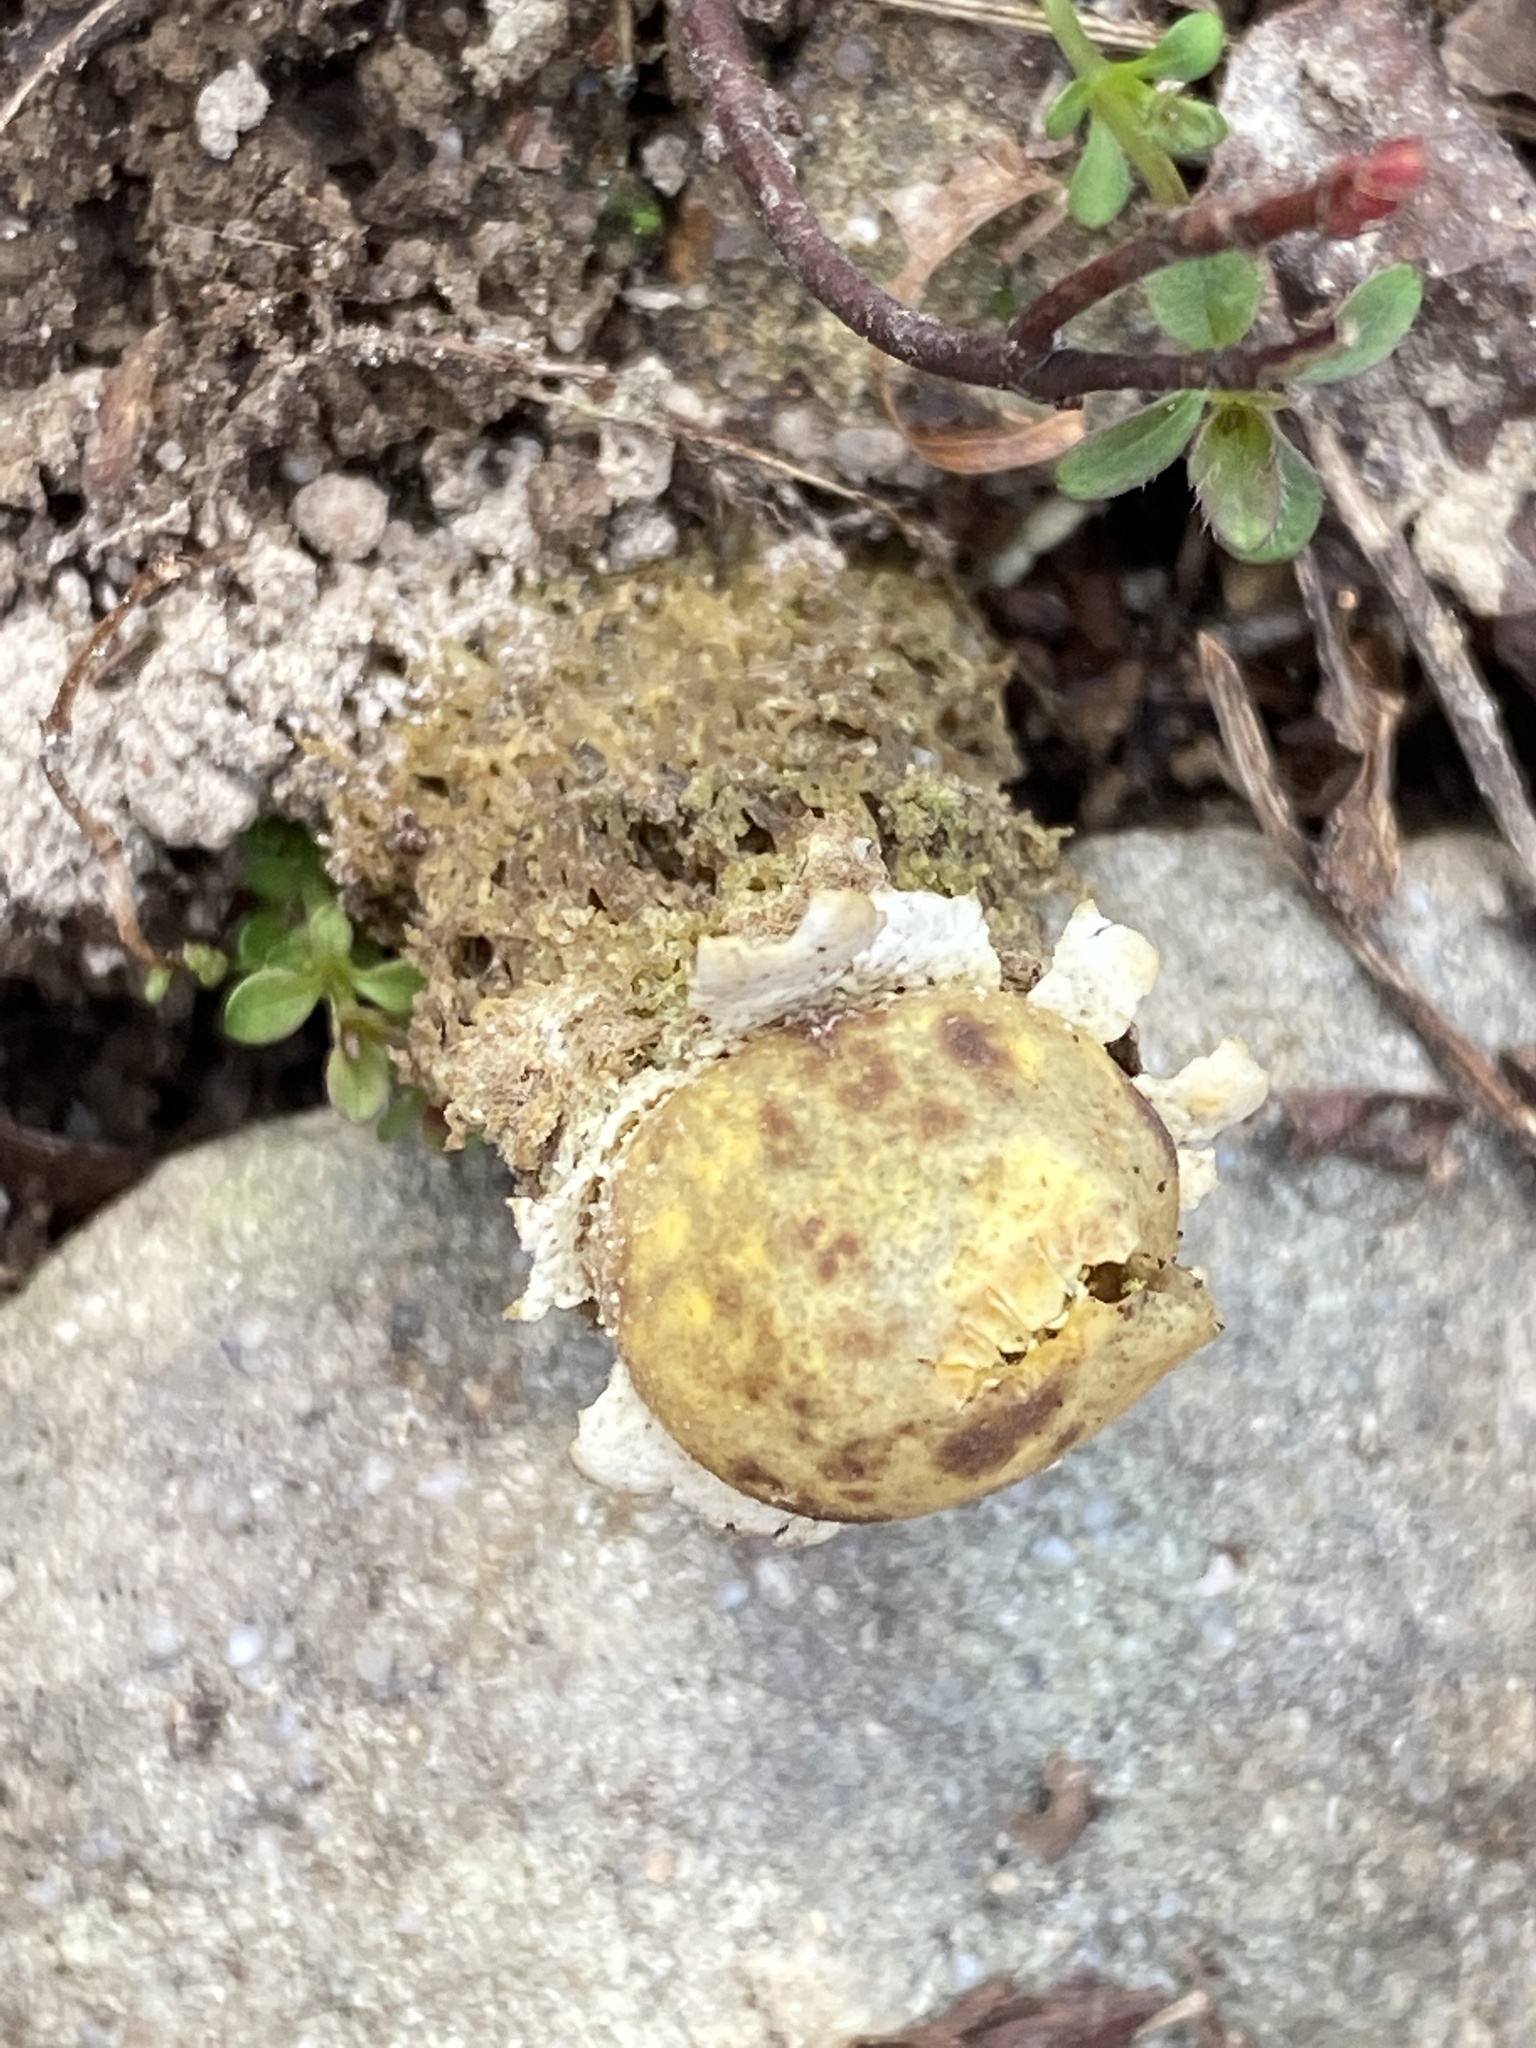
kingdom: Fungi
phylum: Basidiomycota
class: Agaricomycetes
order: Boletales
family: Calostomataceae
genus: Calostoma
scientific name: Calostoma lutescens
